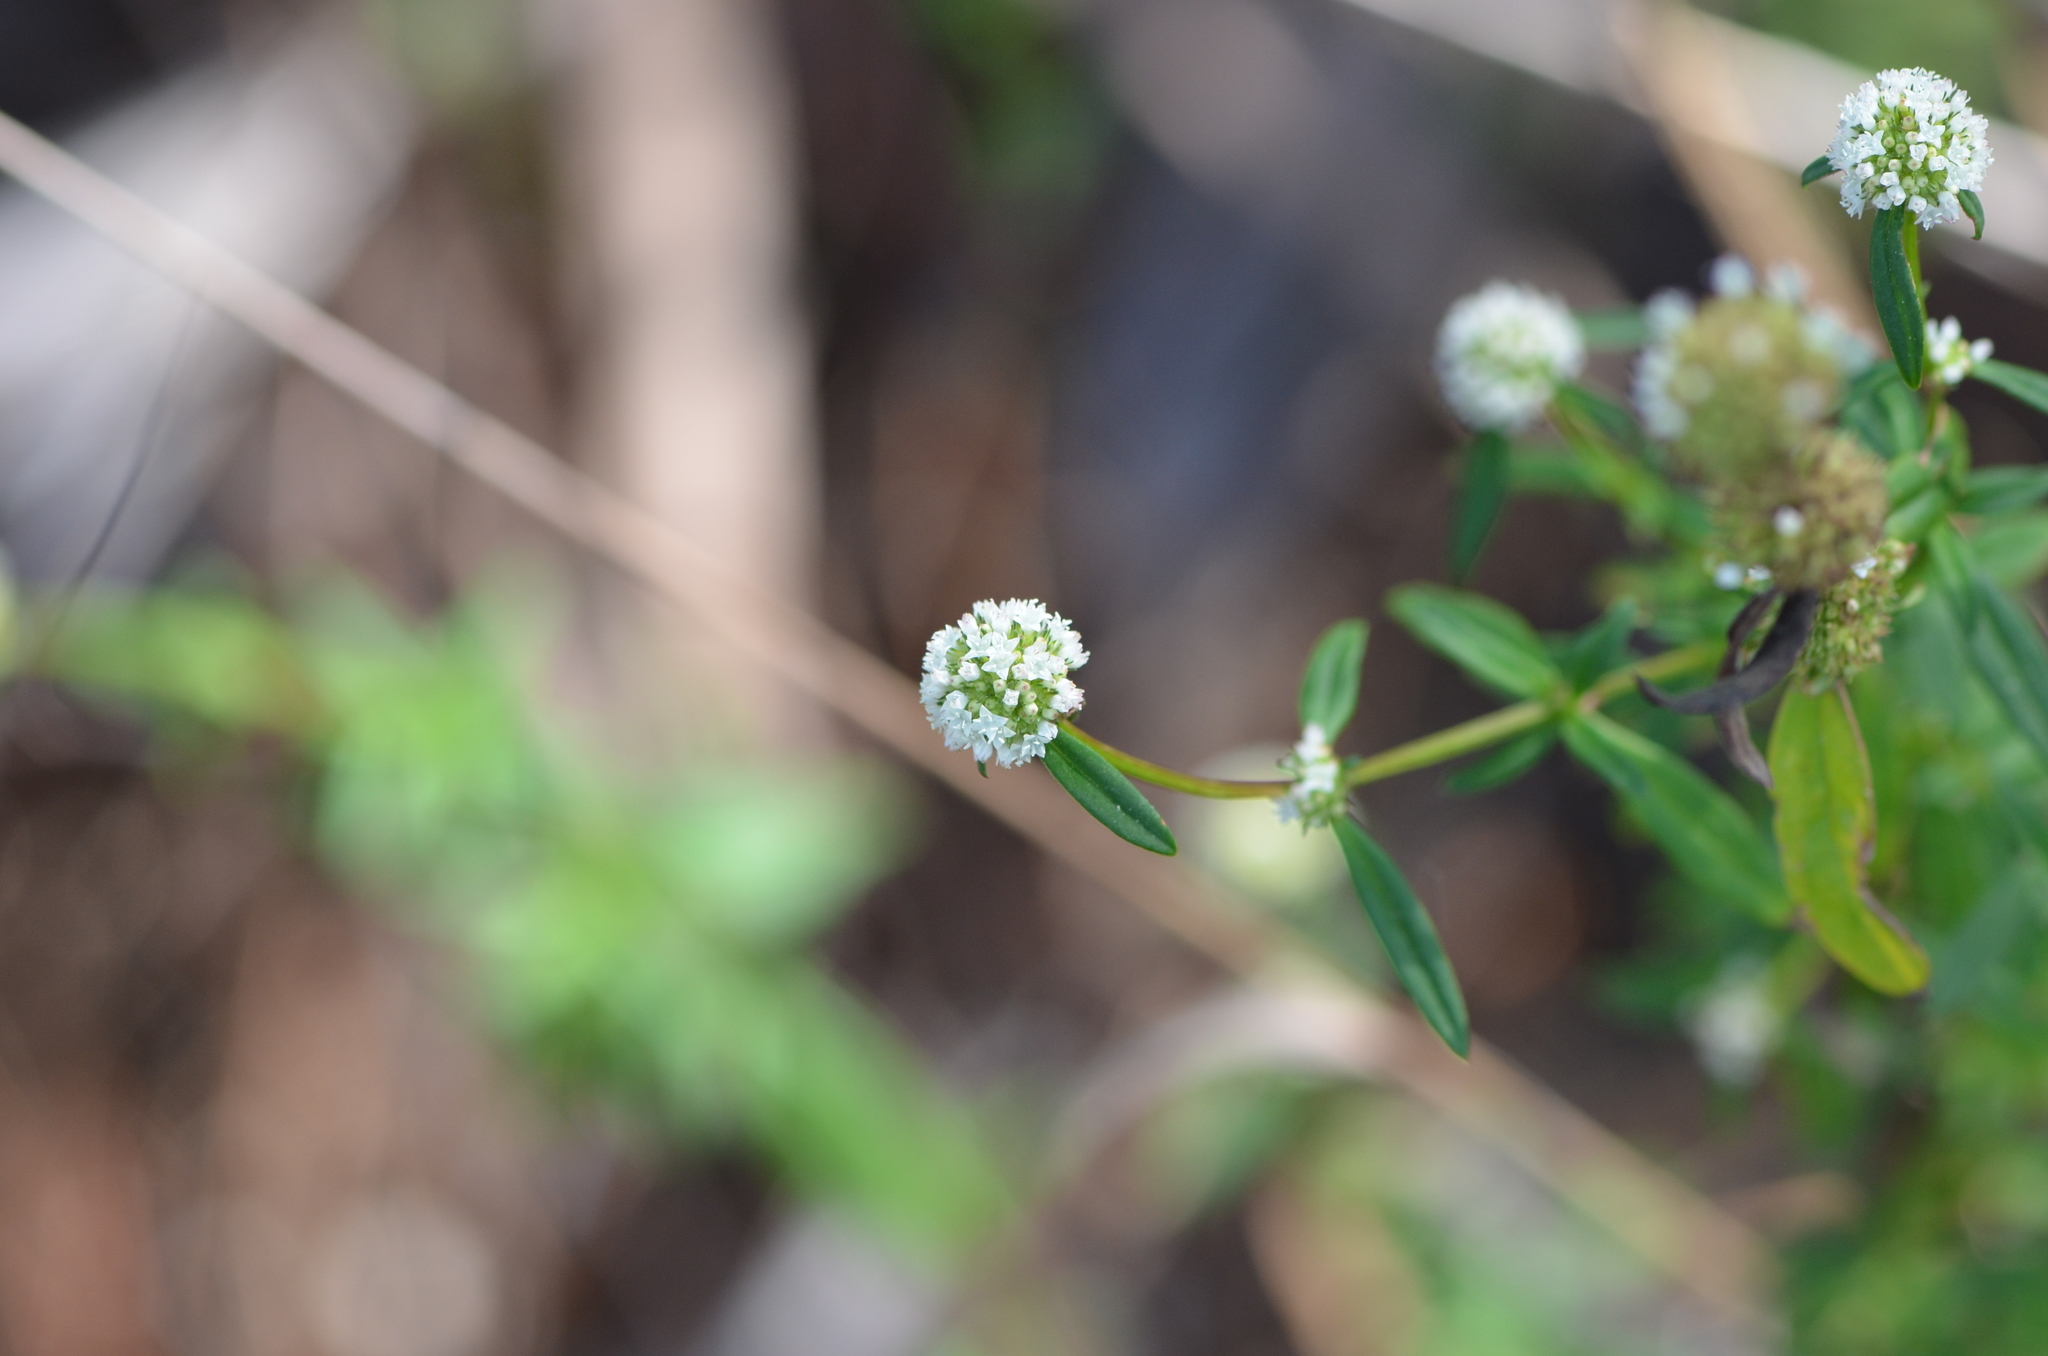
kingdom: Plantae
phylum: Tracheophyta
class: Magnoliopsida
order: Gentianales
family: Rubiaceae
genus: Spermacoce
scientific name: Spermacoce verticillata
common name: Shrubby false buttonweed
